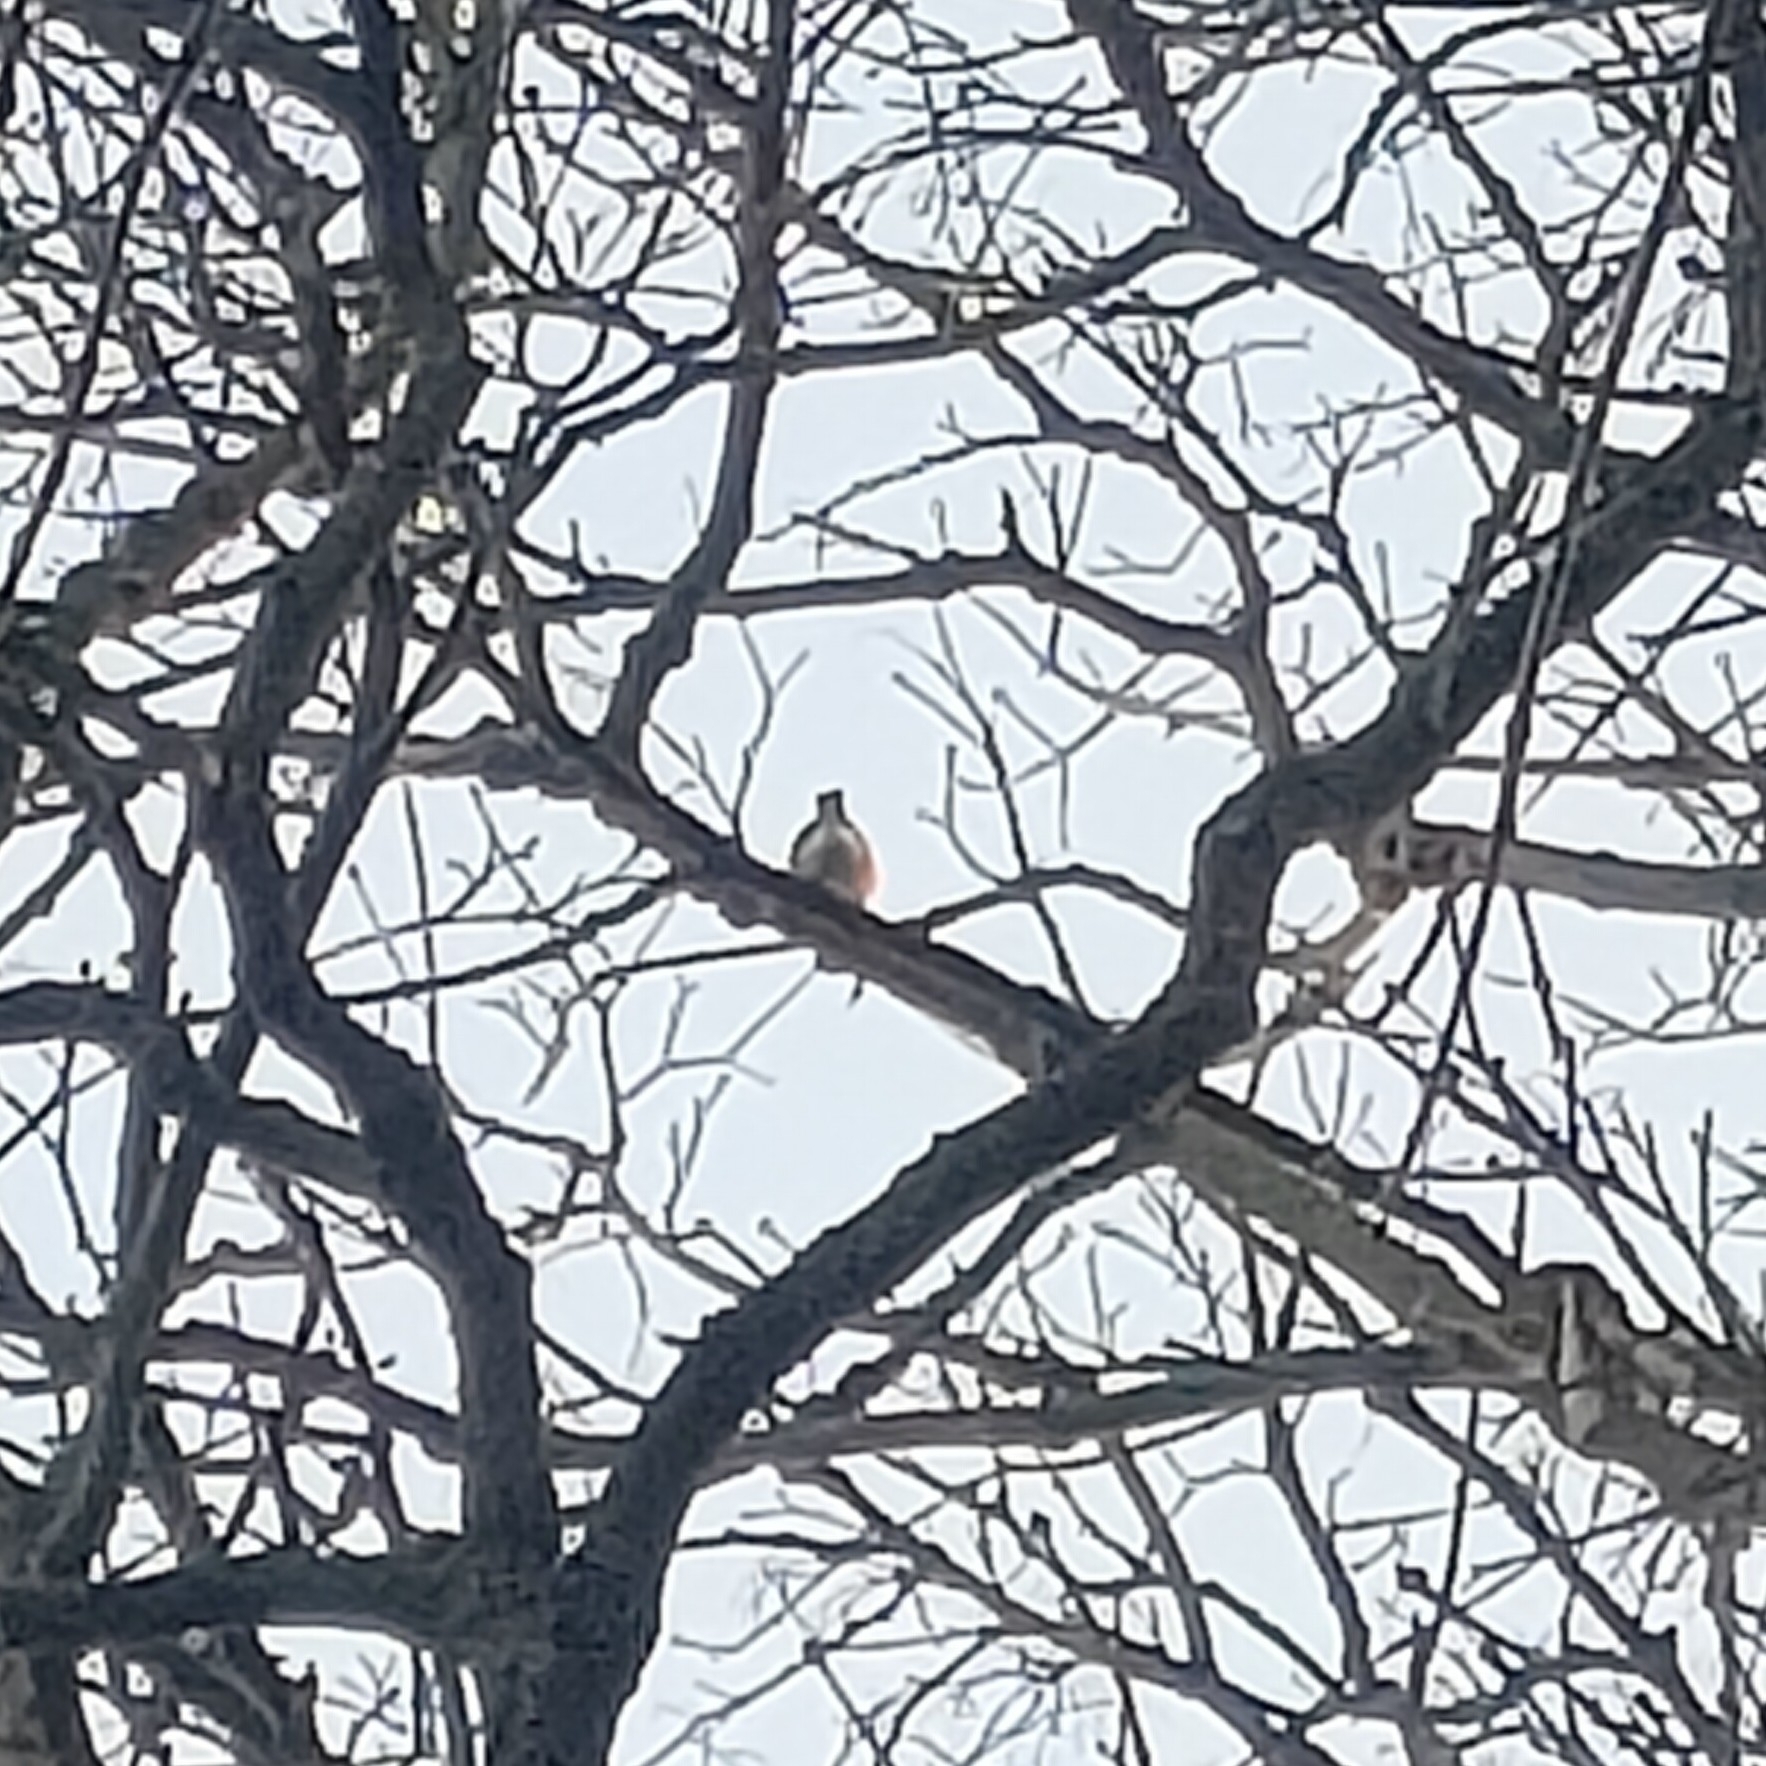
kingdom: Animalia
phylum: Chordata
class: Aves
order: Passeriformes
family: Fringillidae
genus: Pyrrhula
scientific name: Pyrrhula pyrrhula
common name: Eurasian bullfinch
